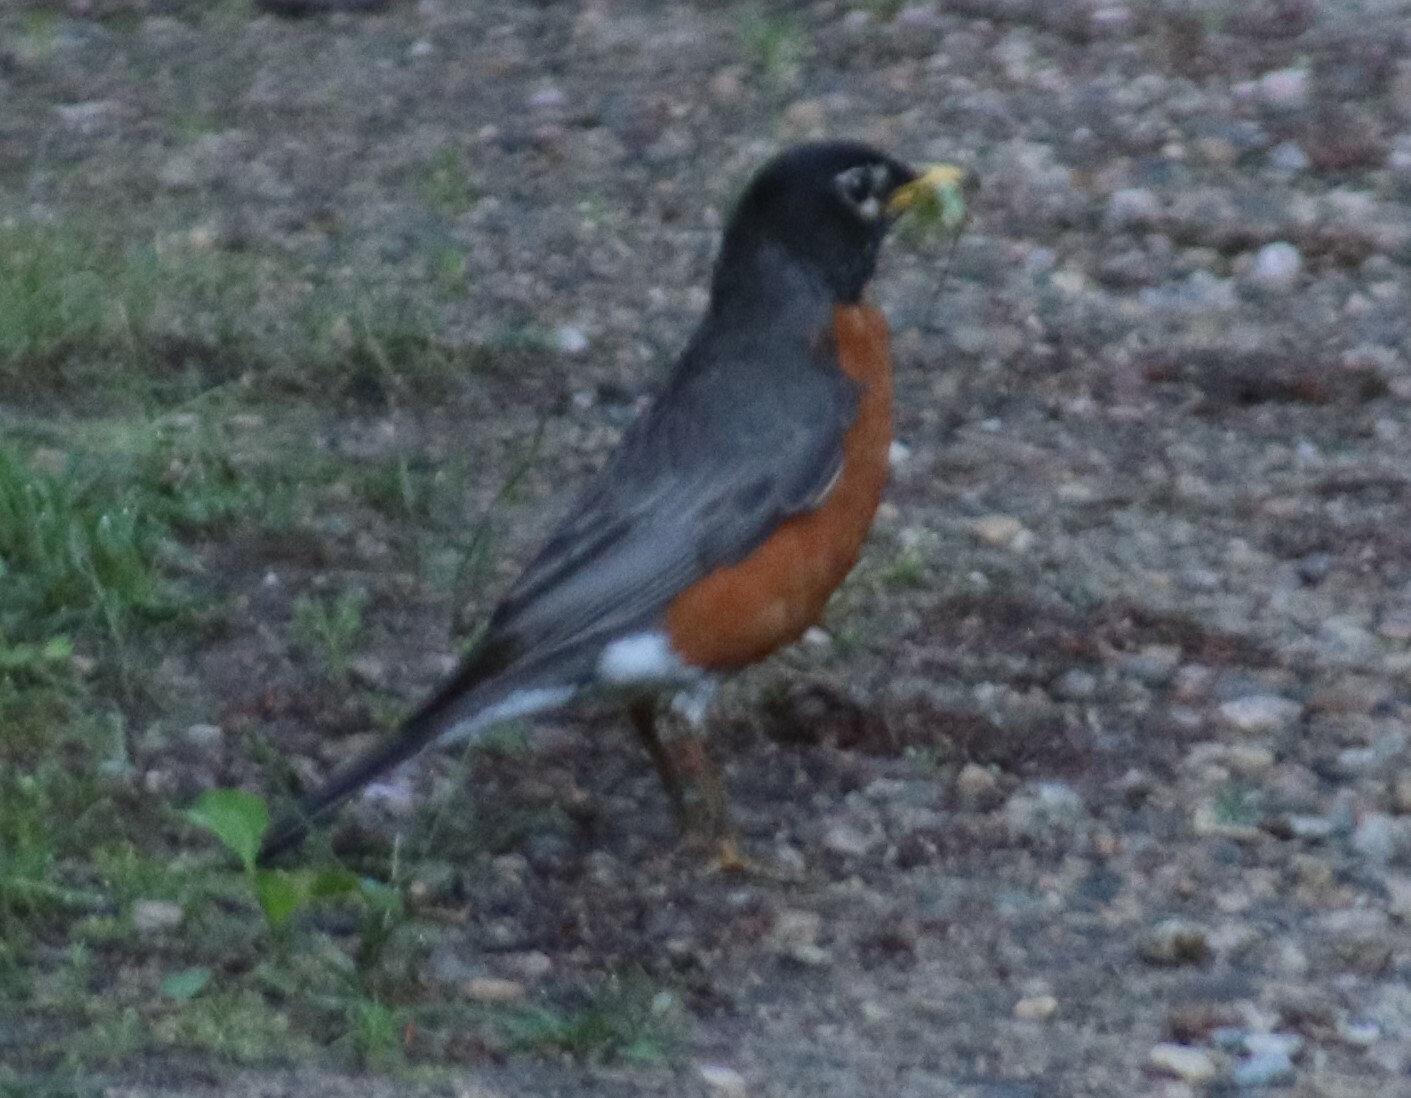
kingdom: Animalia
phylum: Chordata
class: Aves
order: Passeriformes
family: Turdidae
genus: Turdus
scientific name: Turdus migratorius
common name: American robin
